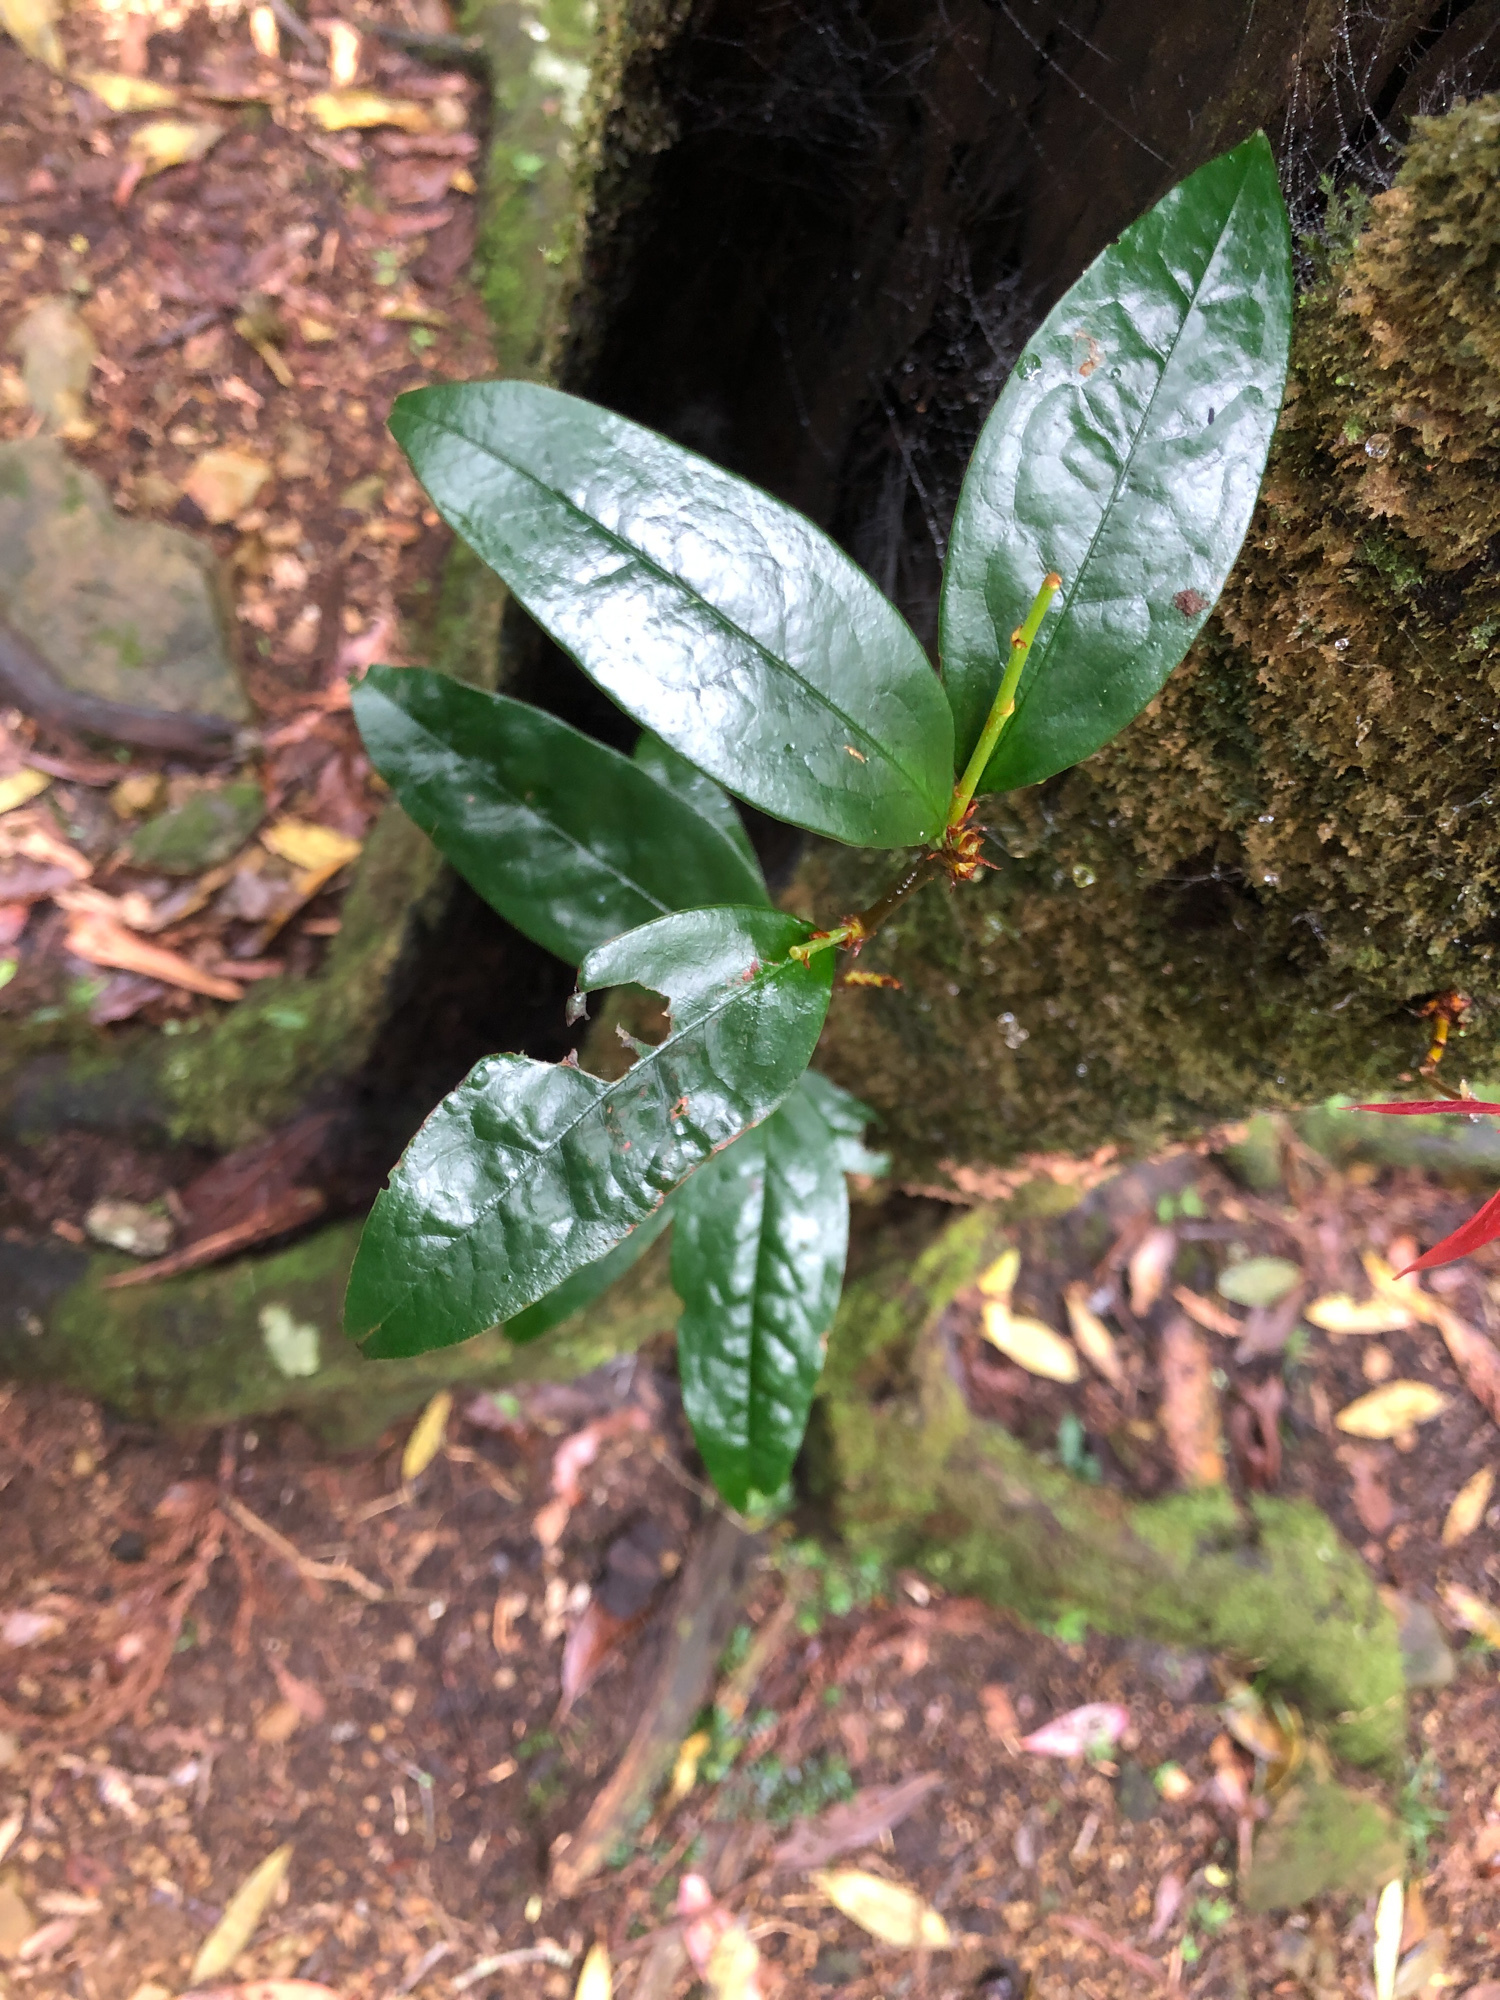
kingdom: Plantae
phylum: Tracheophyta
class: Magnoliopsida
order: Rosales
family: Rosaceae
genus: Prunus
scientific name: Prunus phaeosticta
